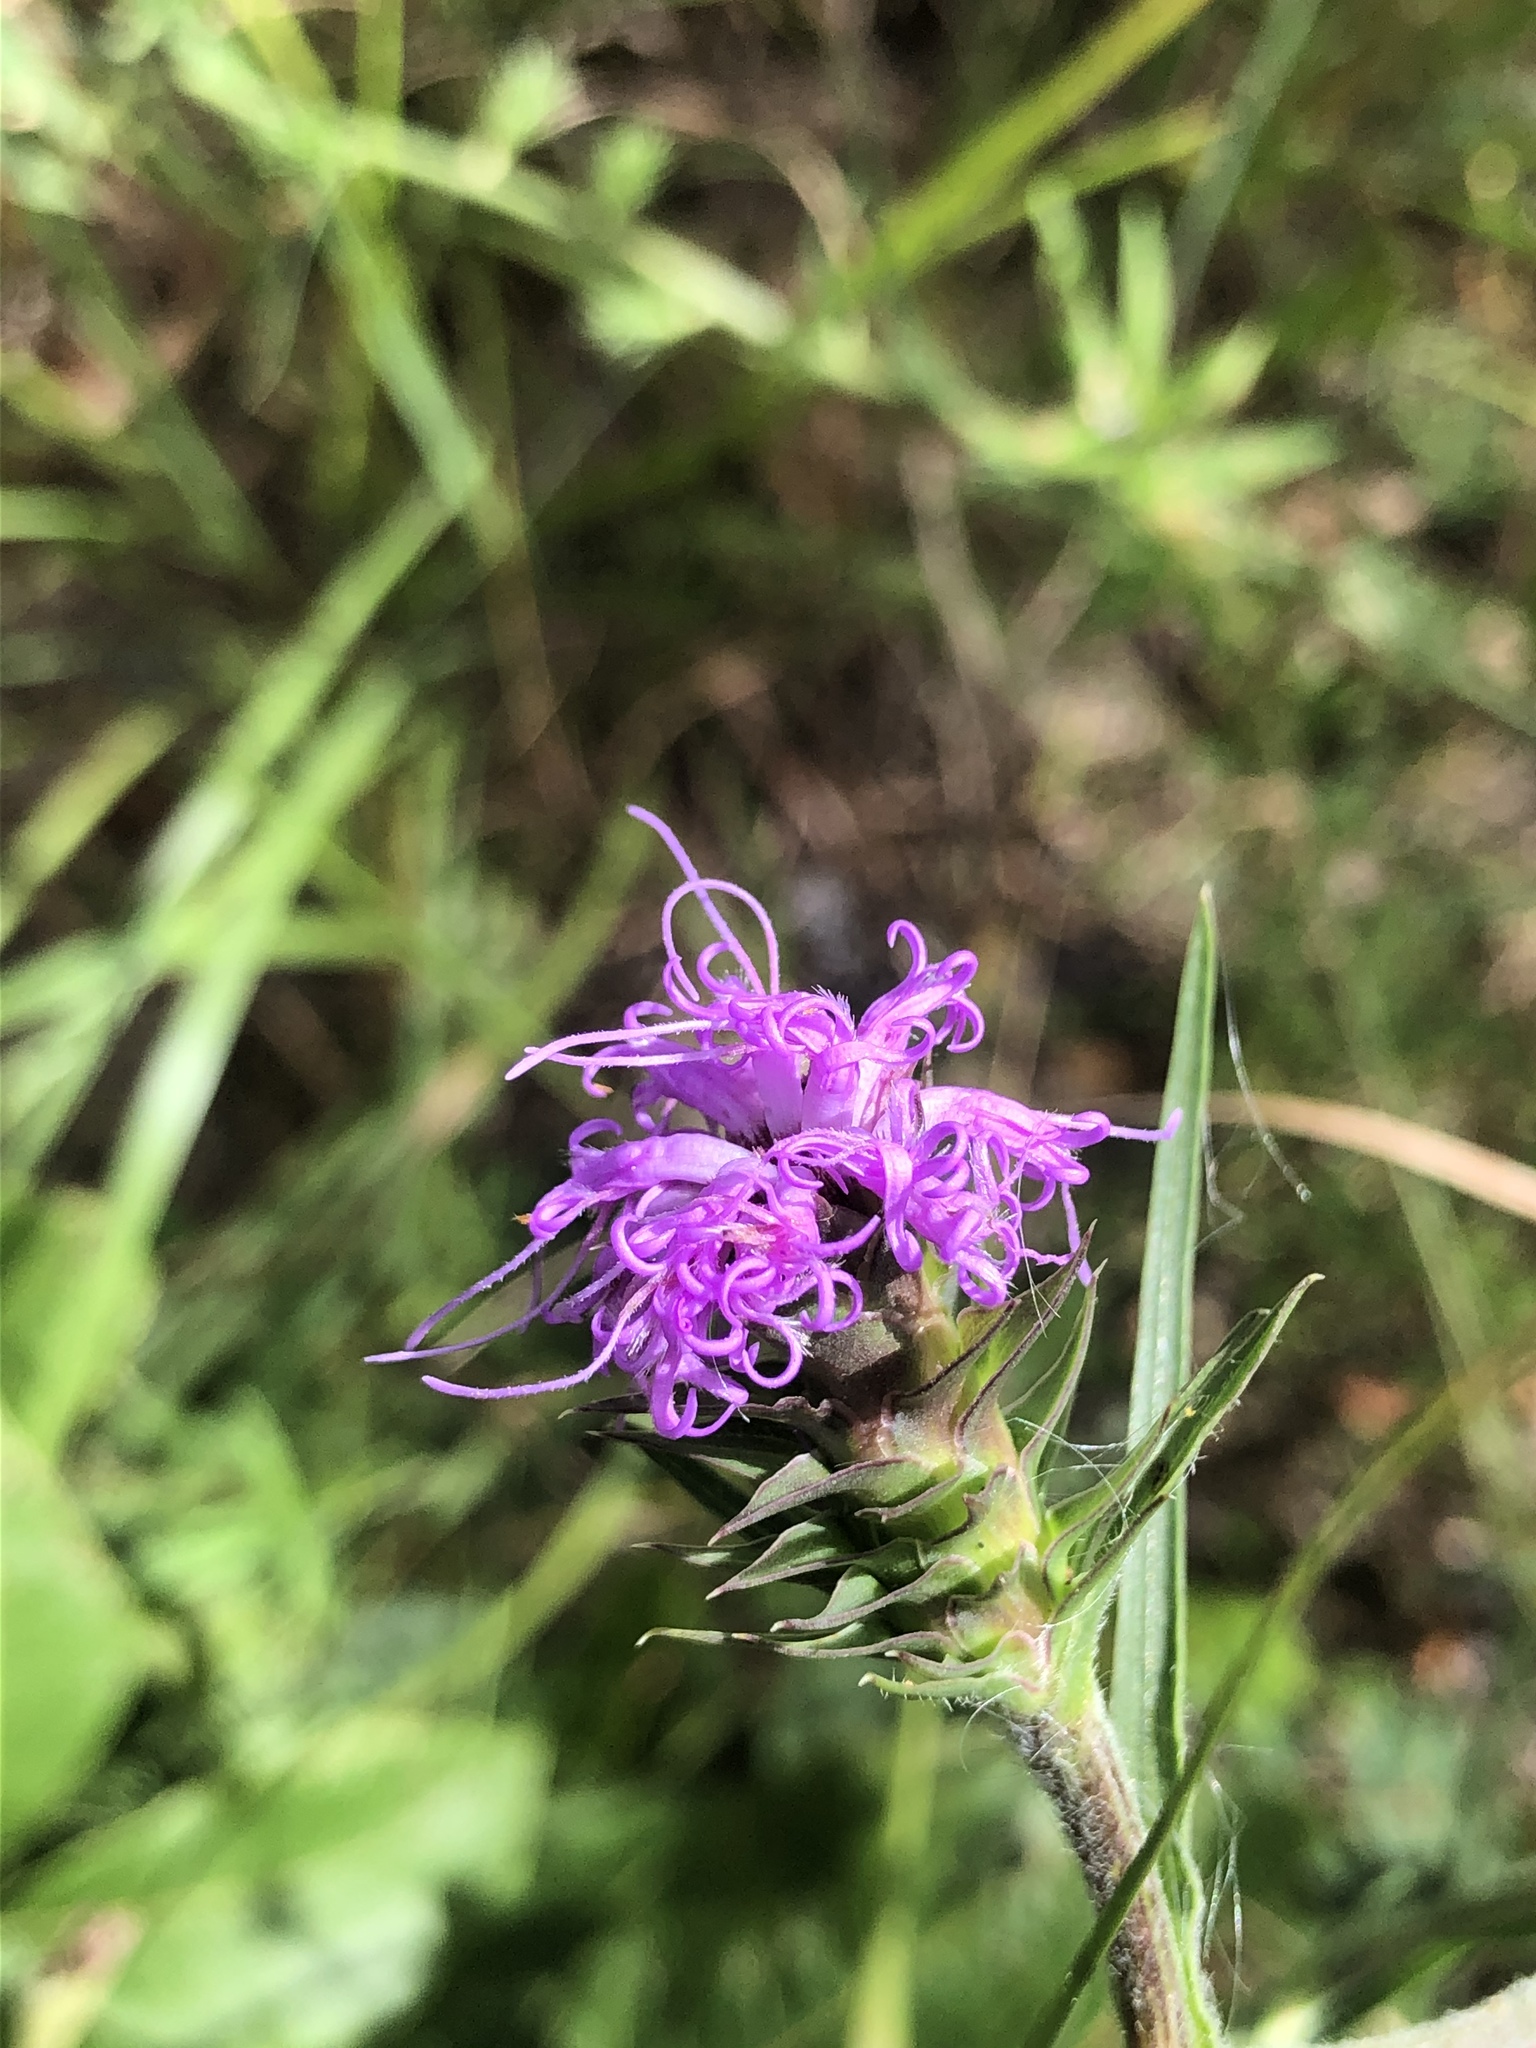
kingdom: Plantae
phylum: Tracheophyta
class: Magnoliopsida
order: Asterales
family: Asteraceae
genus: Liatris
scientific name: Liatris squarrosa
